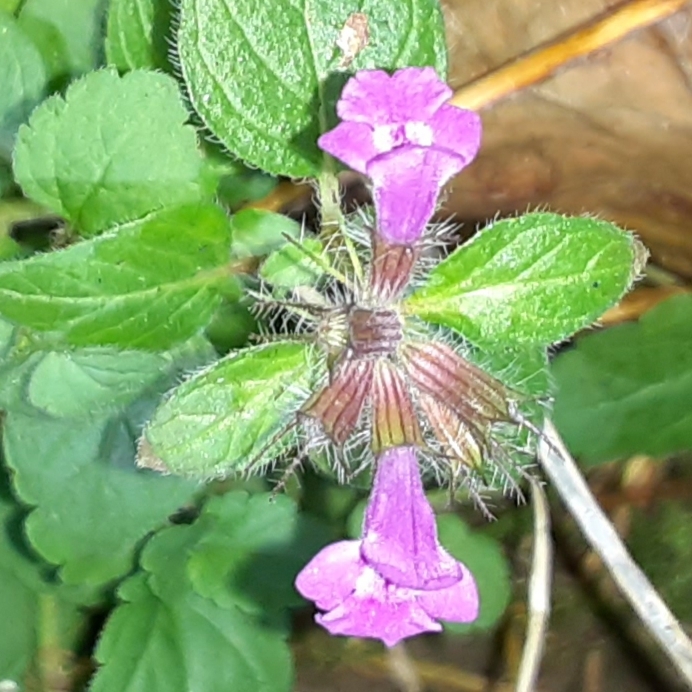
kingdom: Plantae
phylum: Tracheophyta
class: Magnoliopsida
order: Lamiales
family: Lamiaceae
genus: Clinopodium
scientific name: Clinopodium vulgare
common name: Wild basil
